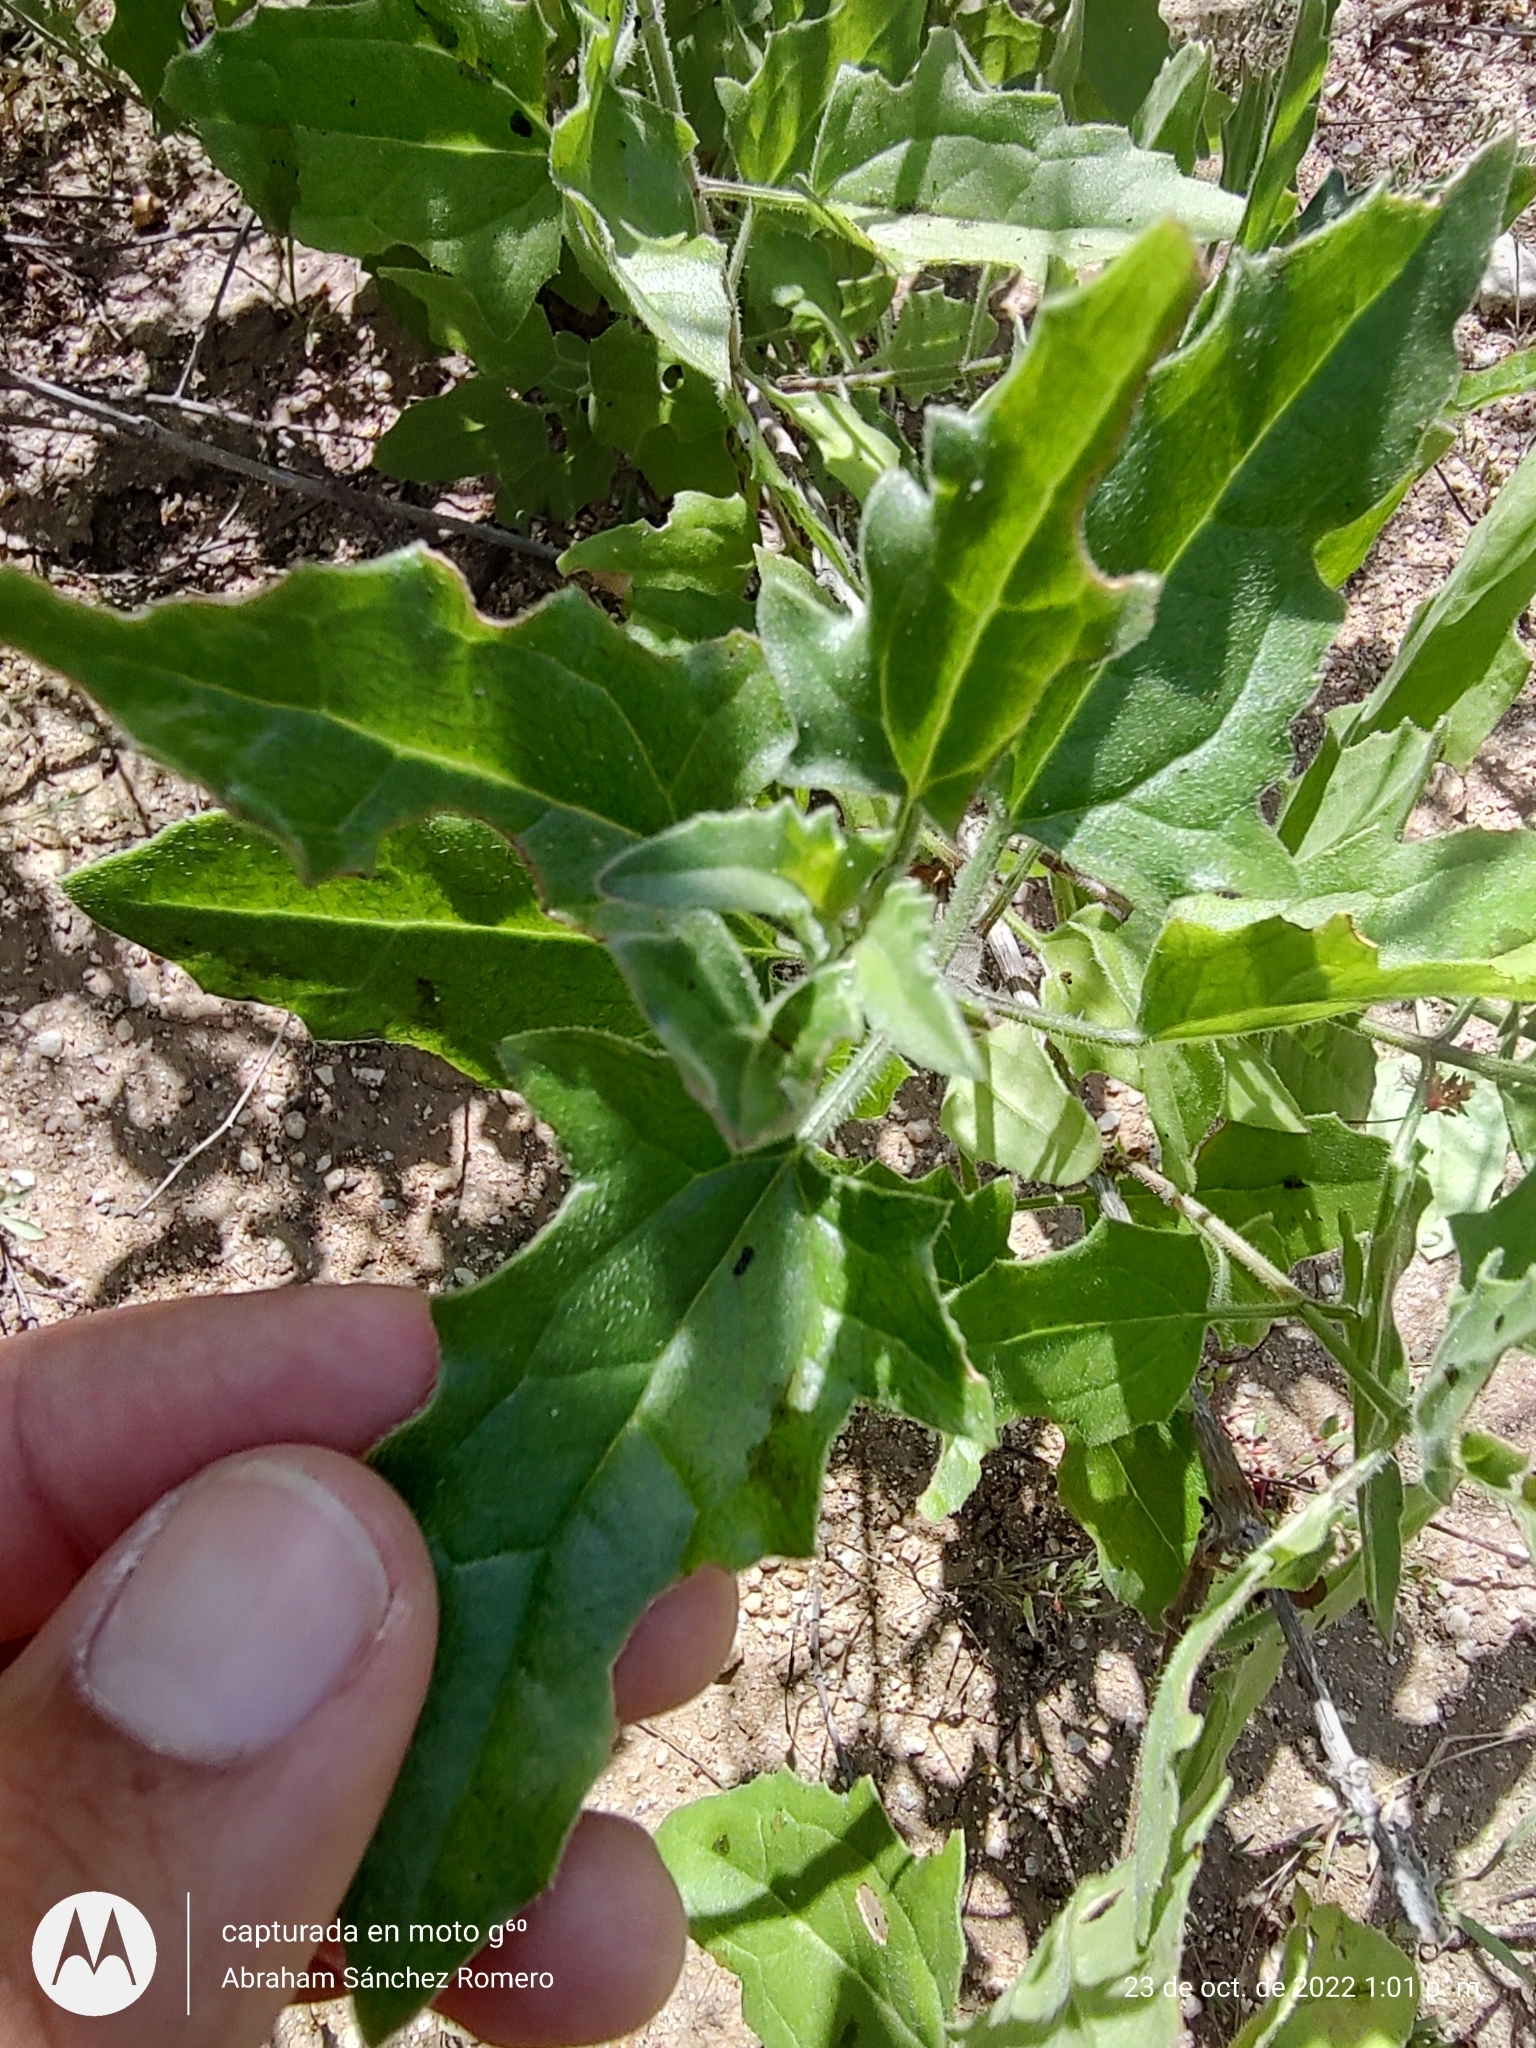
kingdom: Plantae
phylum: Tracheophyta
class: Magnoliopsida
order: Asterales
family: Asteraceae
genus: Bebbia
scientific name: Bebbia atriplicifolia
